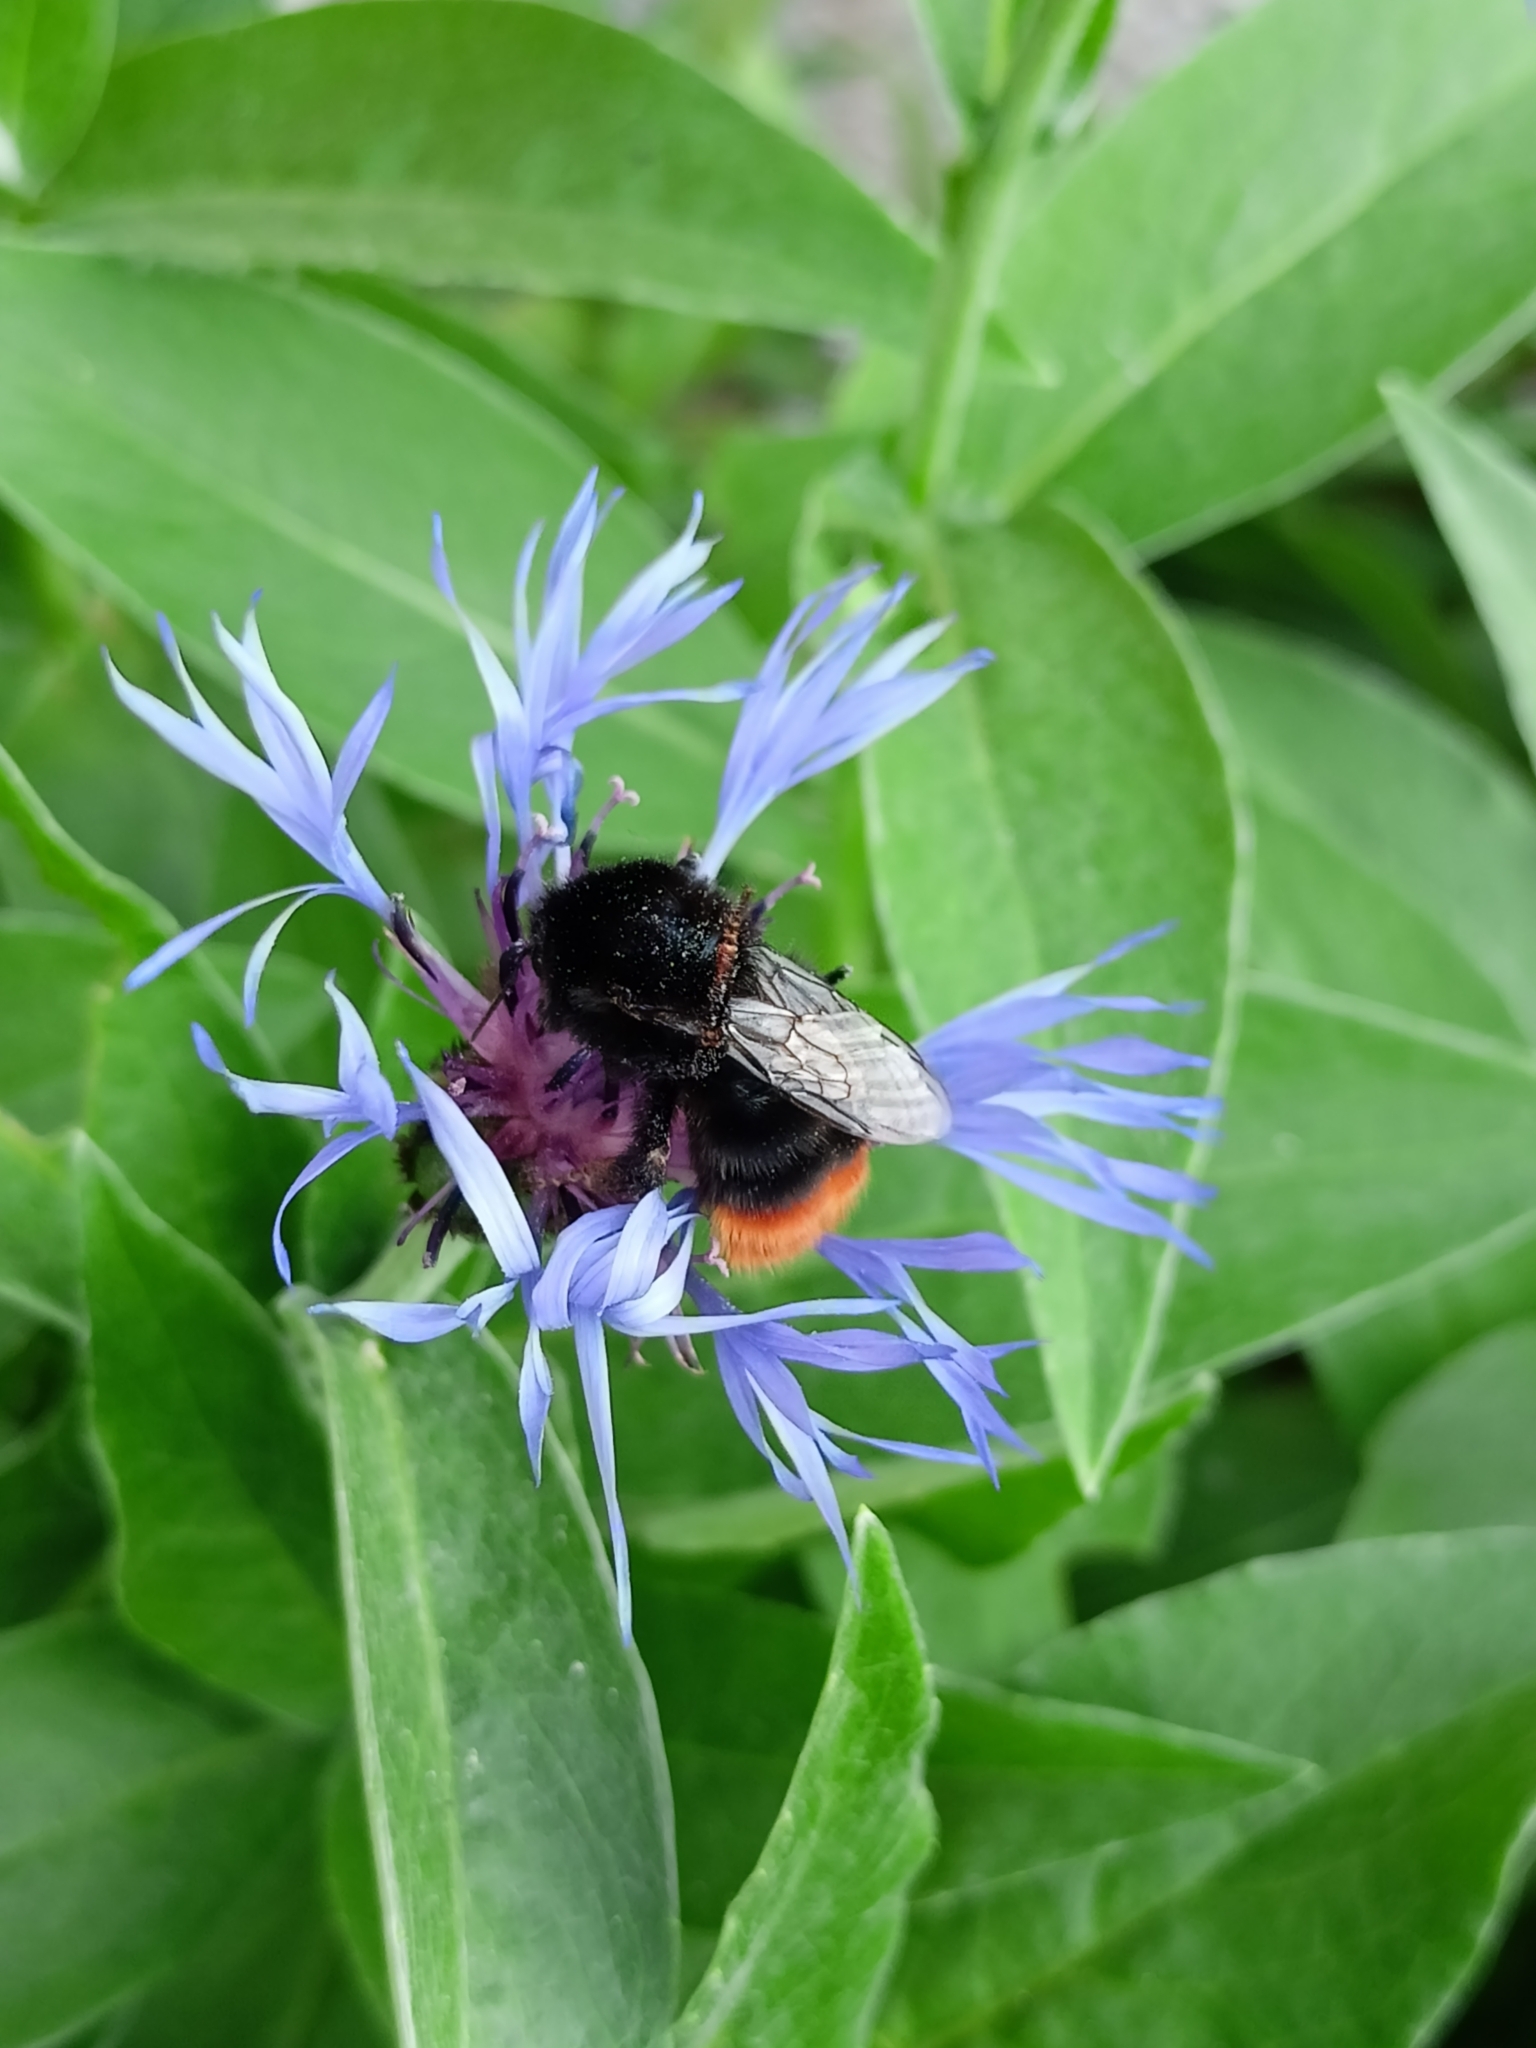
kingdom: Animalia
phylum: Arthropoda
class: Insecta
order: Hymenoptera
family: Apidae
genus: Bombus
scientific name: Bombus lapidarius
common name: Large red-tailed humble-bee
